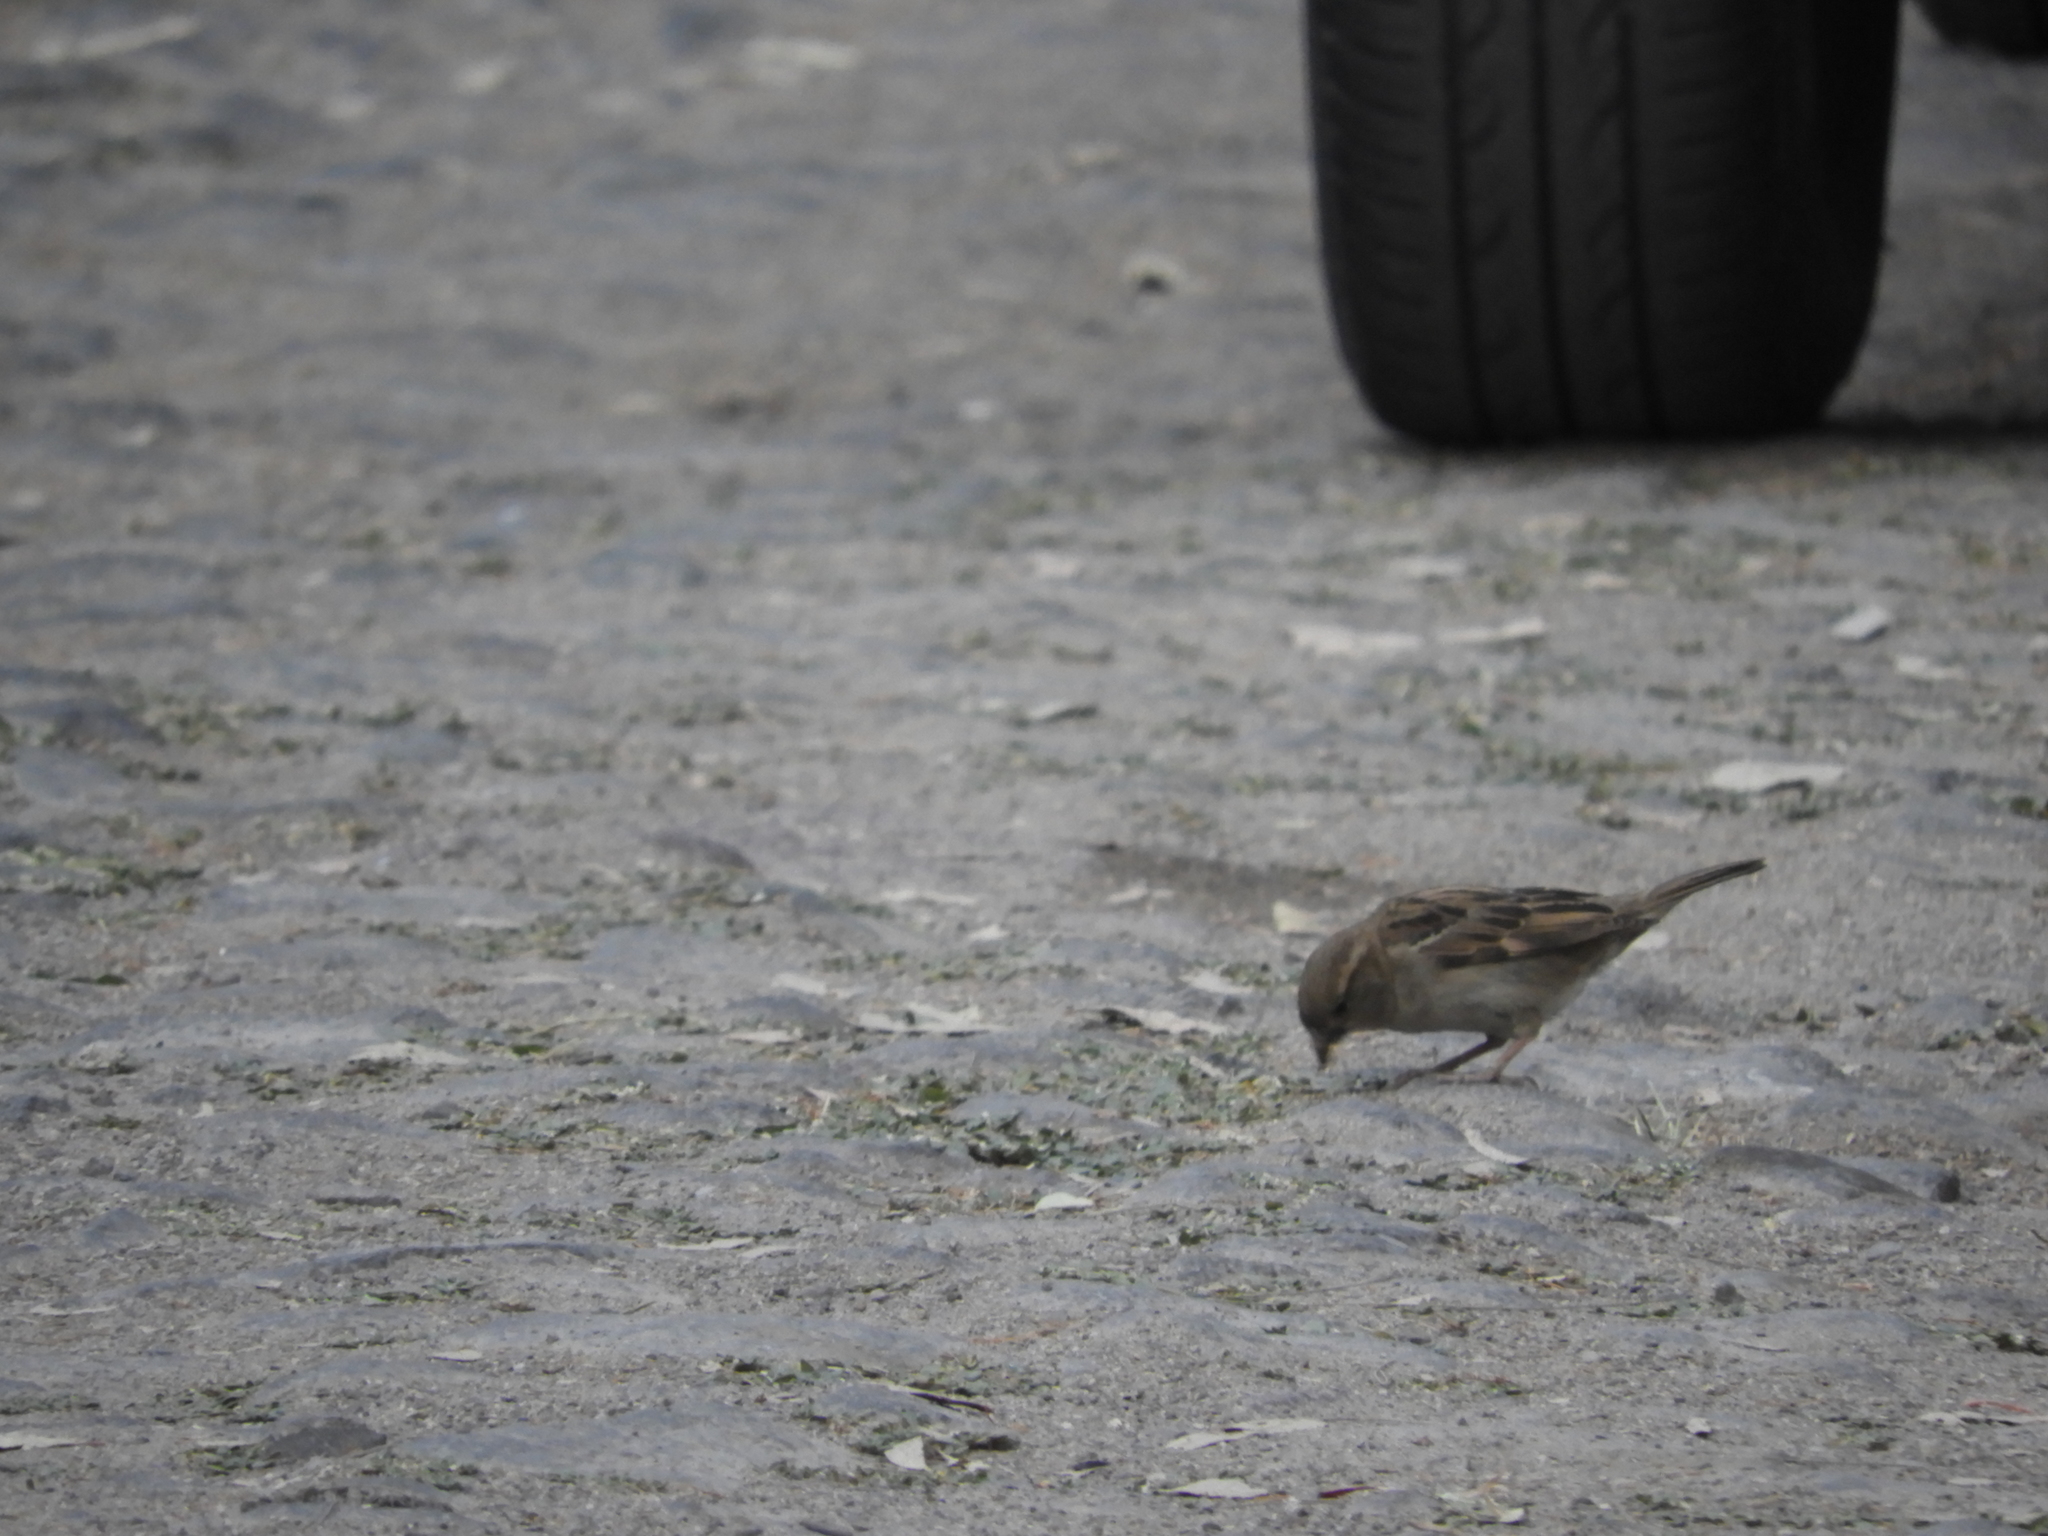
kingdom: Animalia
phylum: Chordata
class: Aves
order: Passeriformes
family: Passeridae
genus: Passer
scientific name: Passer domesticus
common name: House sparrow
